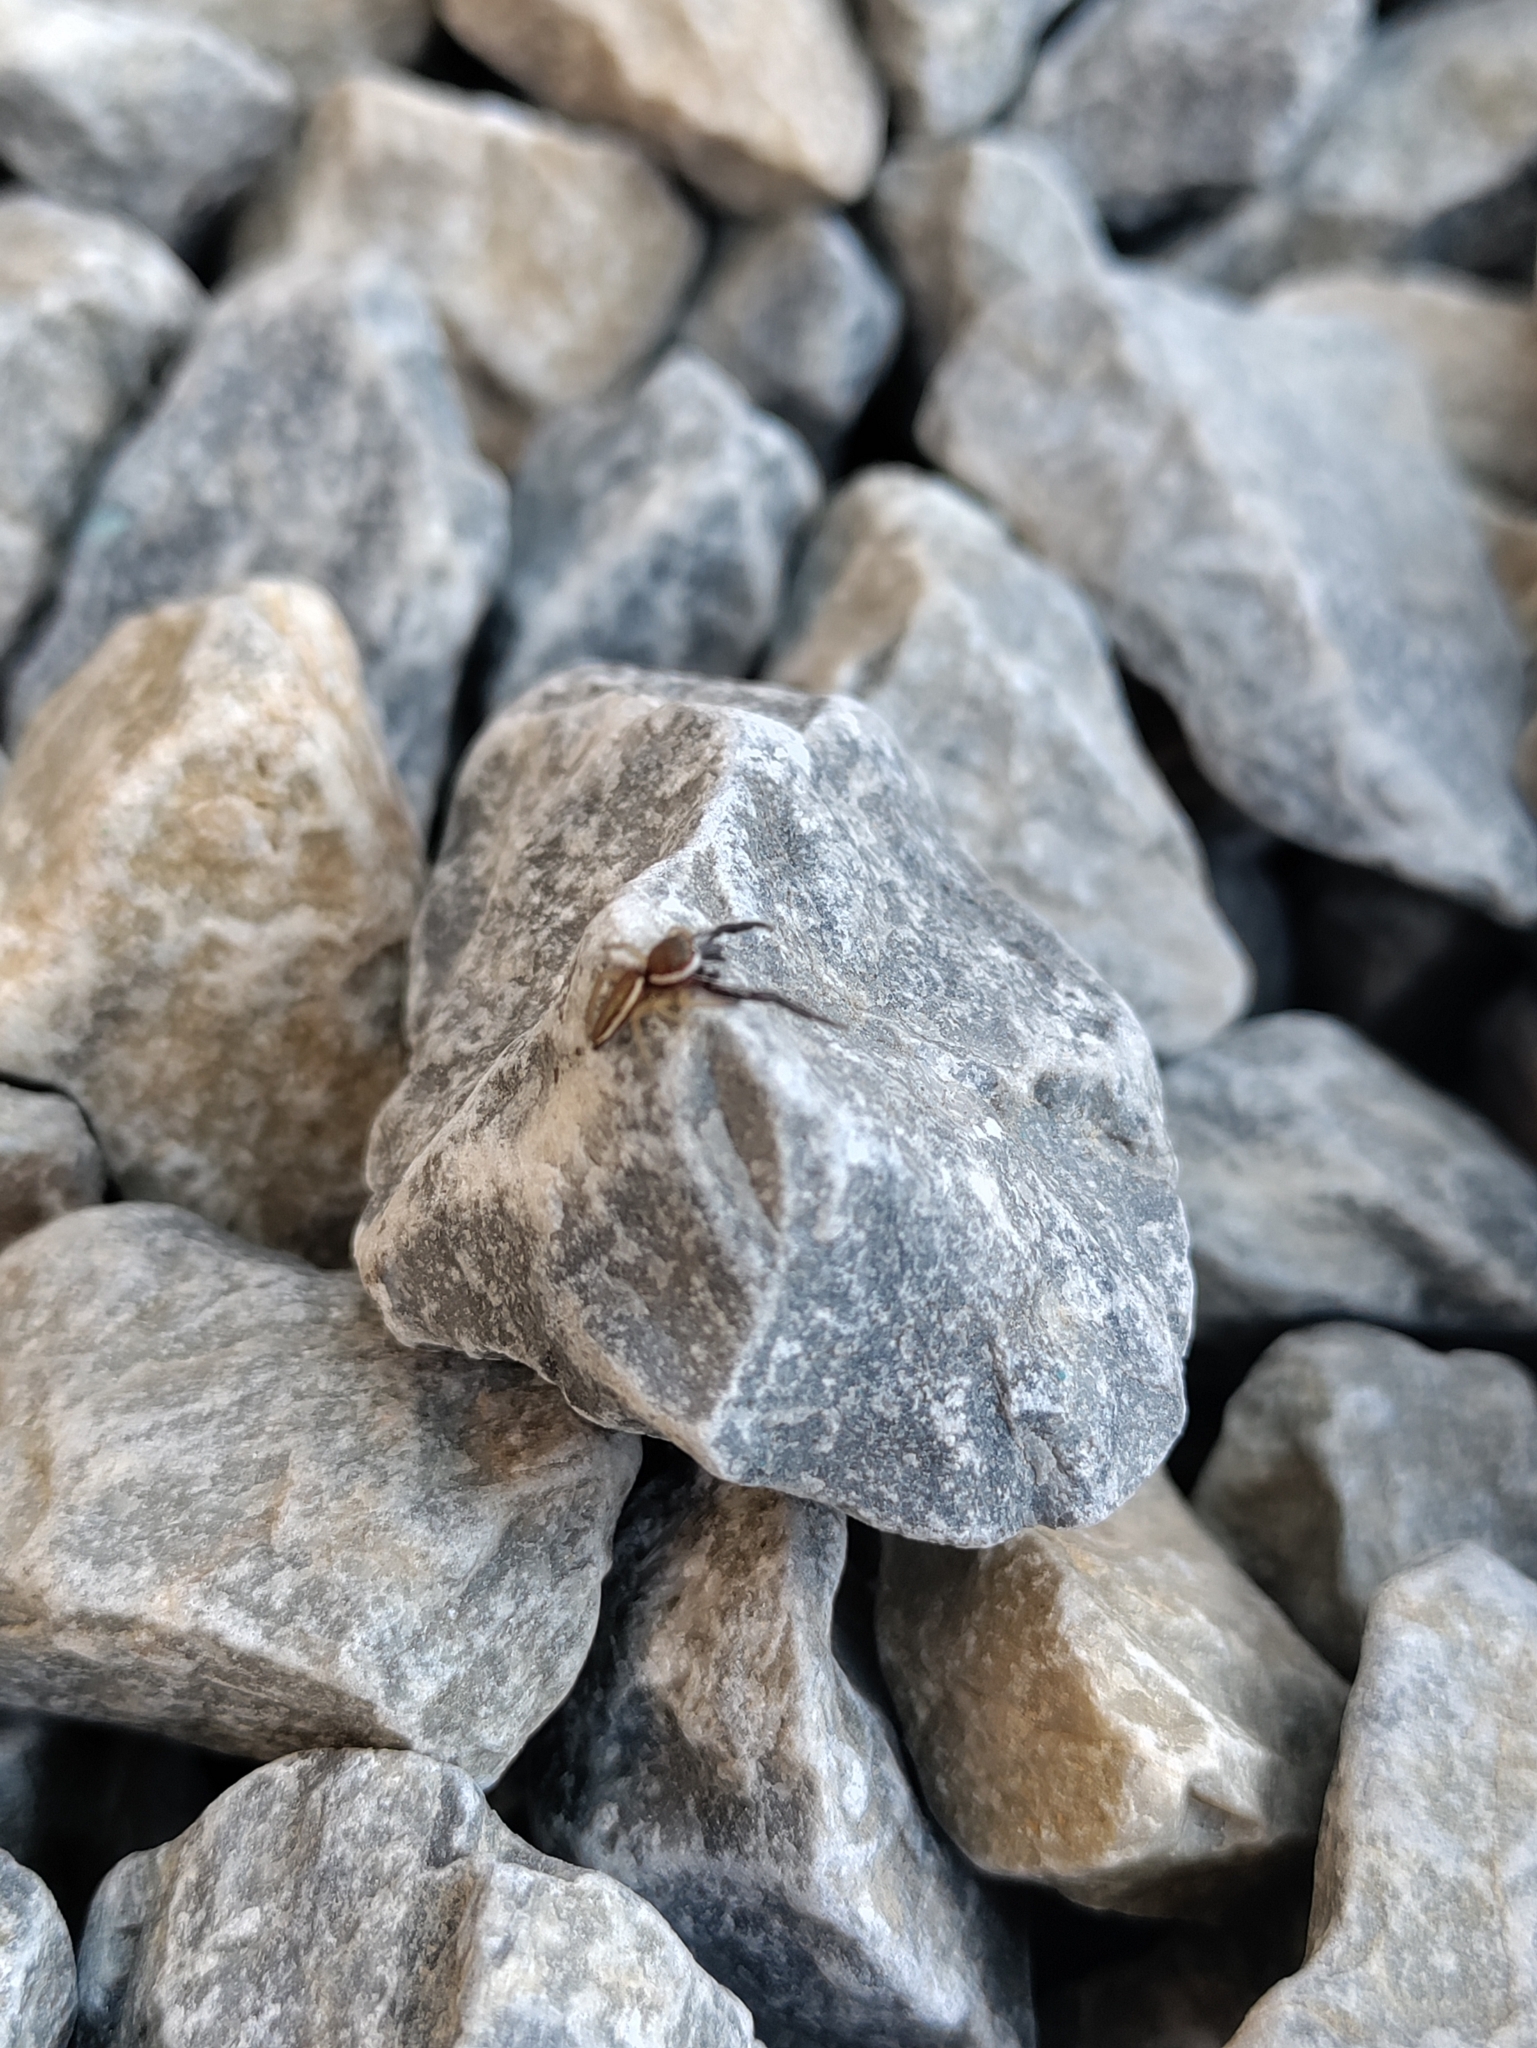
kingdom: Animalia
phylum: Arthropoda
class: Arachnida
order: Araneae
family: Salticidae
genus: Hentzia
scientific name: Hentzia palmarum
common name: Common hentz jumping spider
